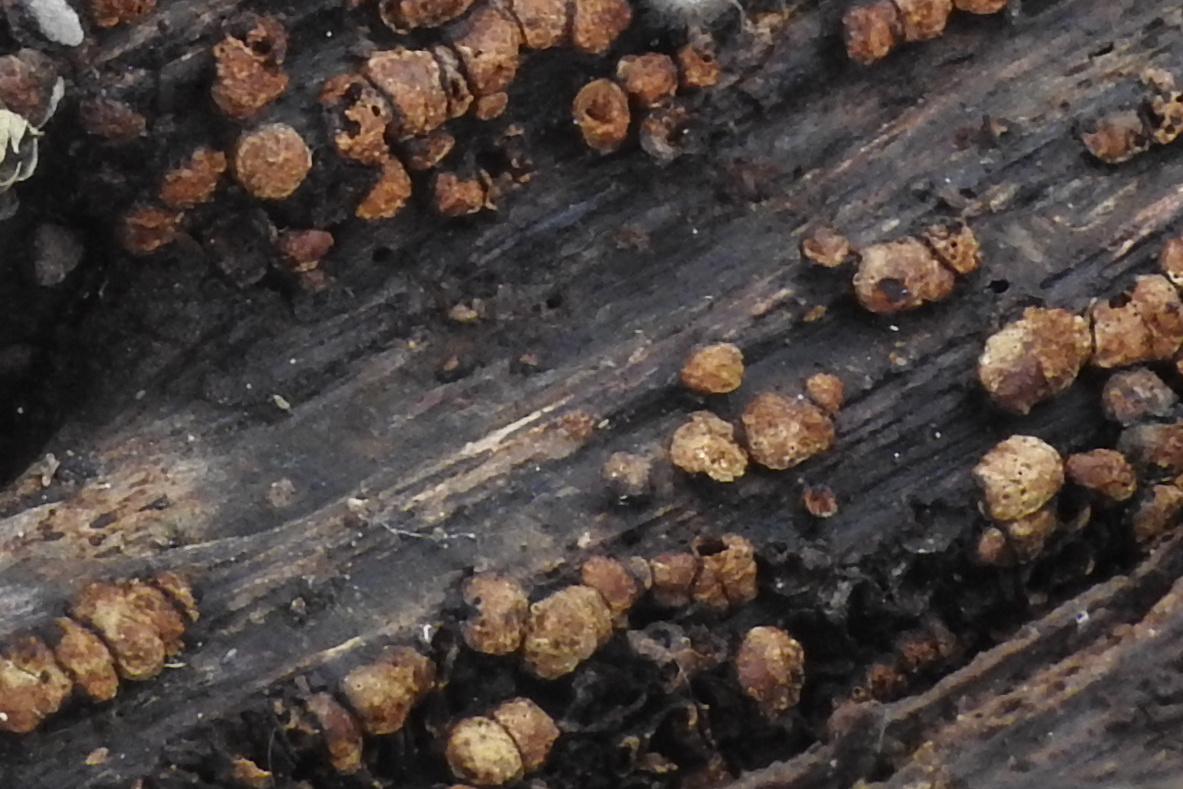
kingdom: Fungi
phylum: Basidiomycota
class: Agaricomycetes
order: Russulales
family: Stereaceae
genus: Xylobolus
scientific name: Xylobolus frustulatus
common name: Ceramic parchment
